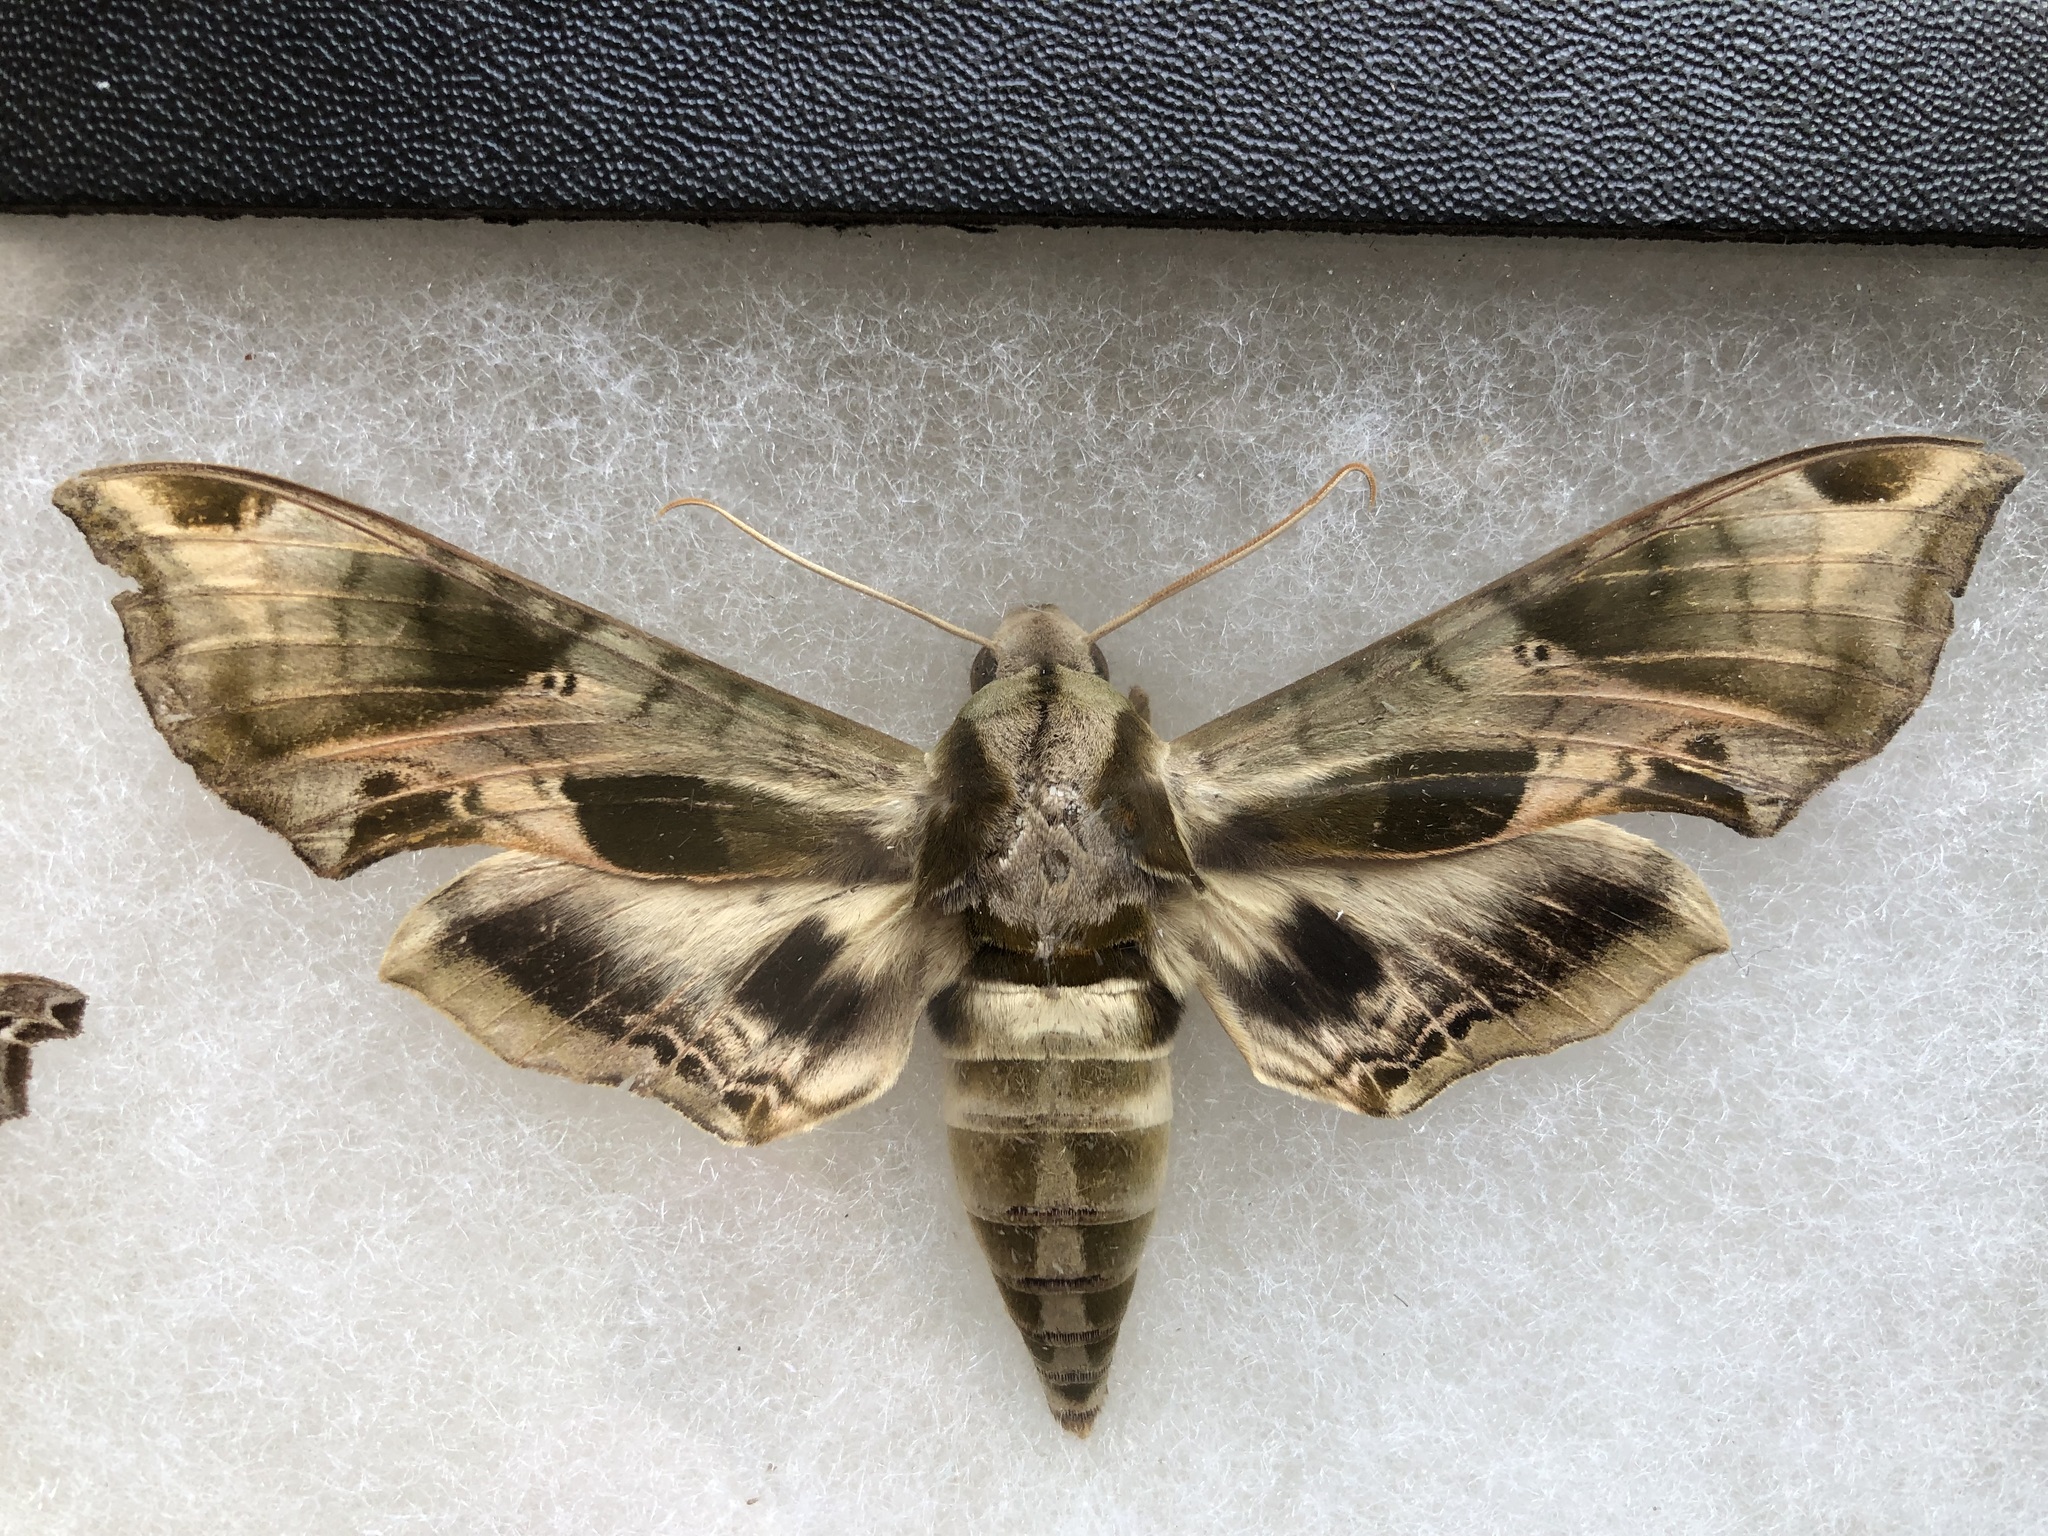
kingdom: Animalia
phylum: Arthropoda
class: Insecta
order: Lepidoptera
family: Sphingidae
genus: Eumorpha
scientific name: Eumorpha pandorus
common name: Pandora sphinx
